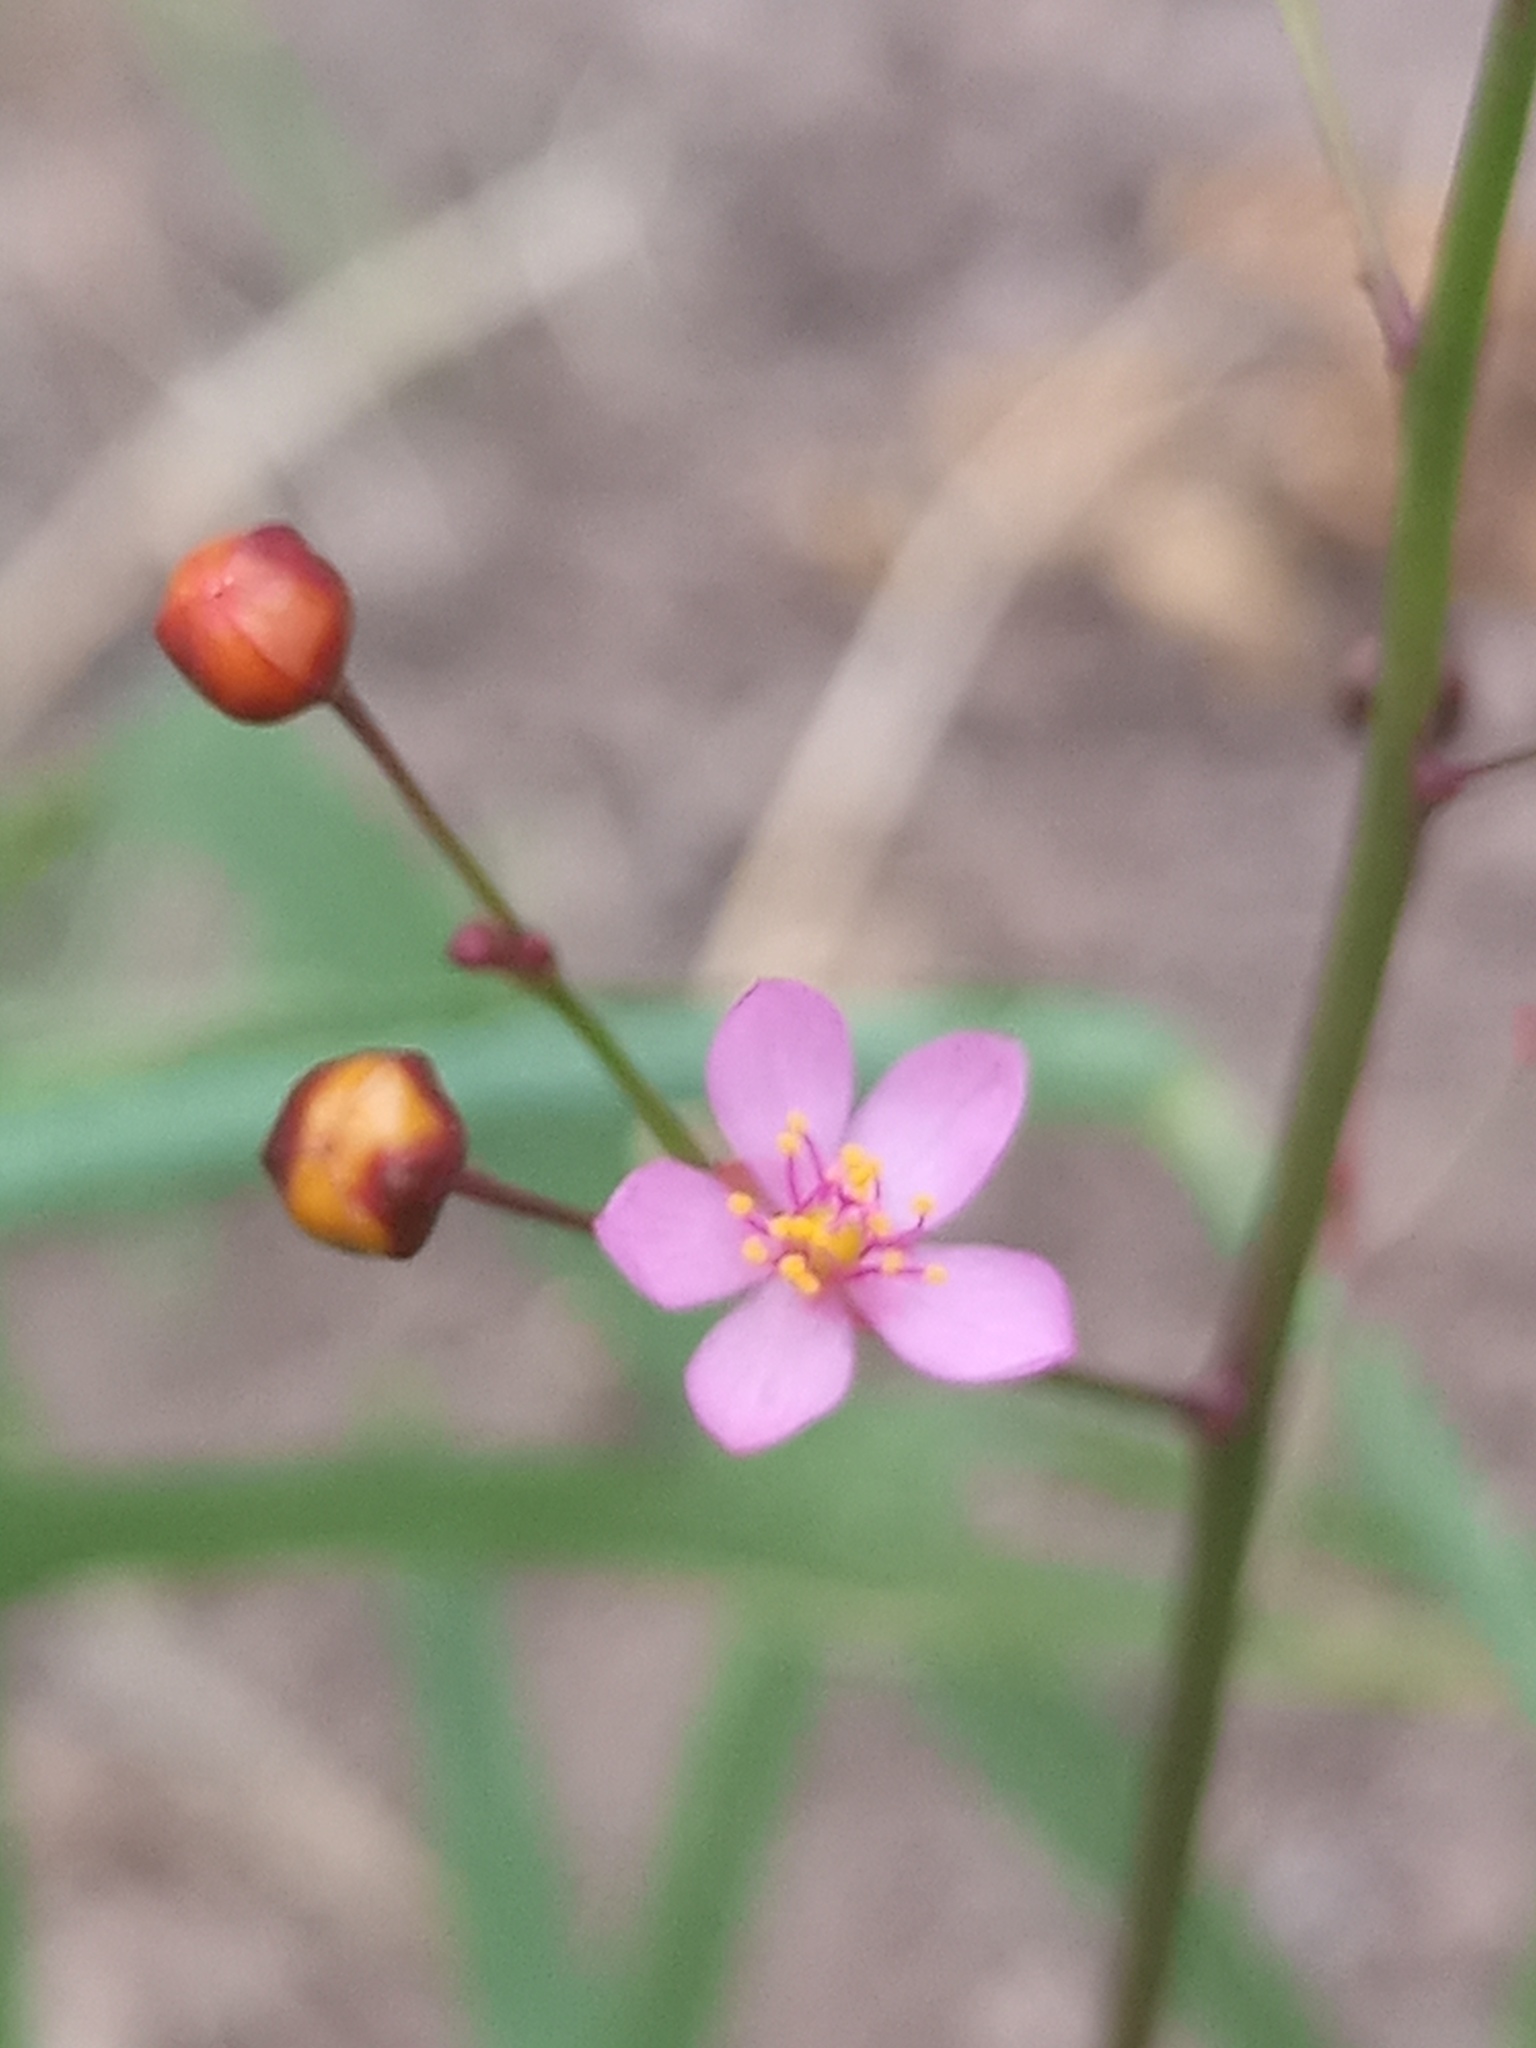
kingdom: Plantae
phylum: Tracheophyta
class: Magnoliopsida
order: Caryophyllales
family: Talinaceae
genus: Talinum
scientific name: Talinum paniculatum
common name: Jewels of opar
